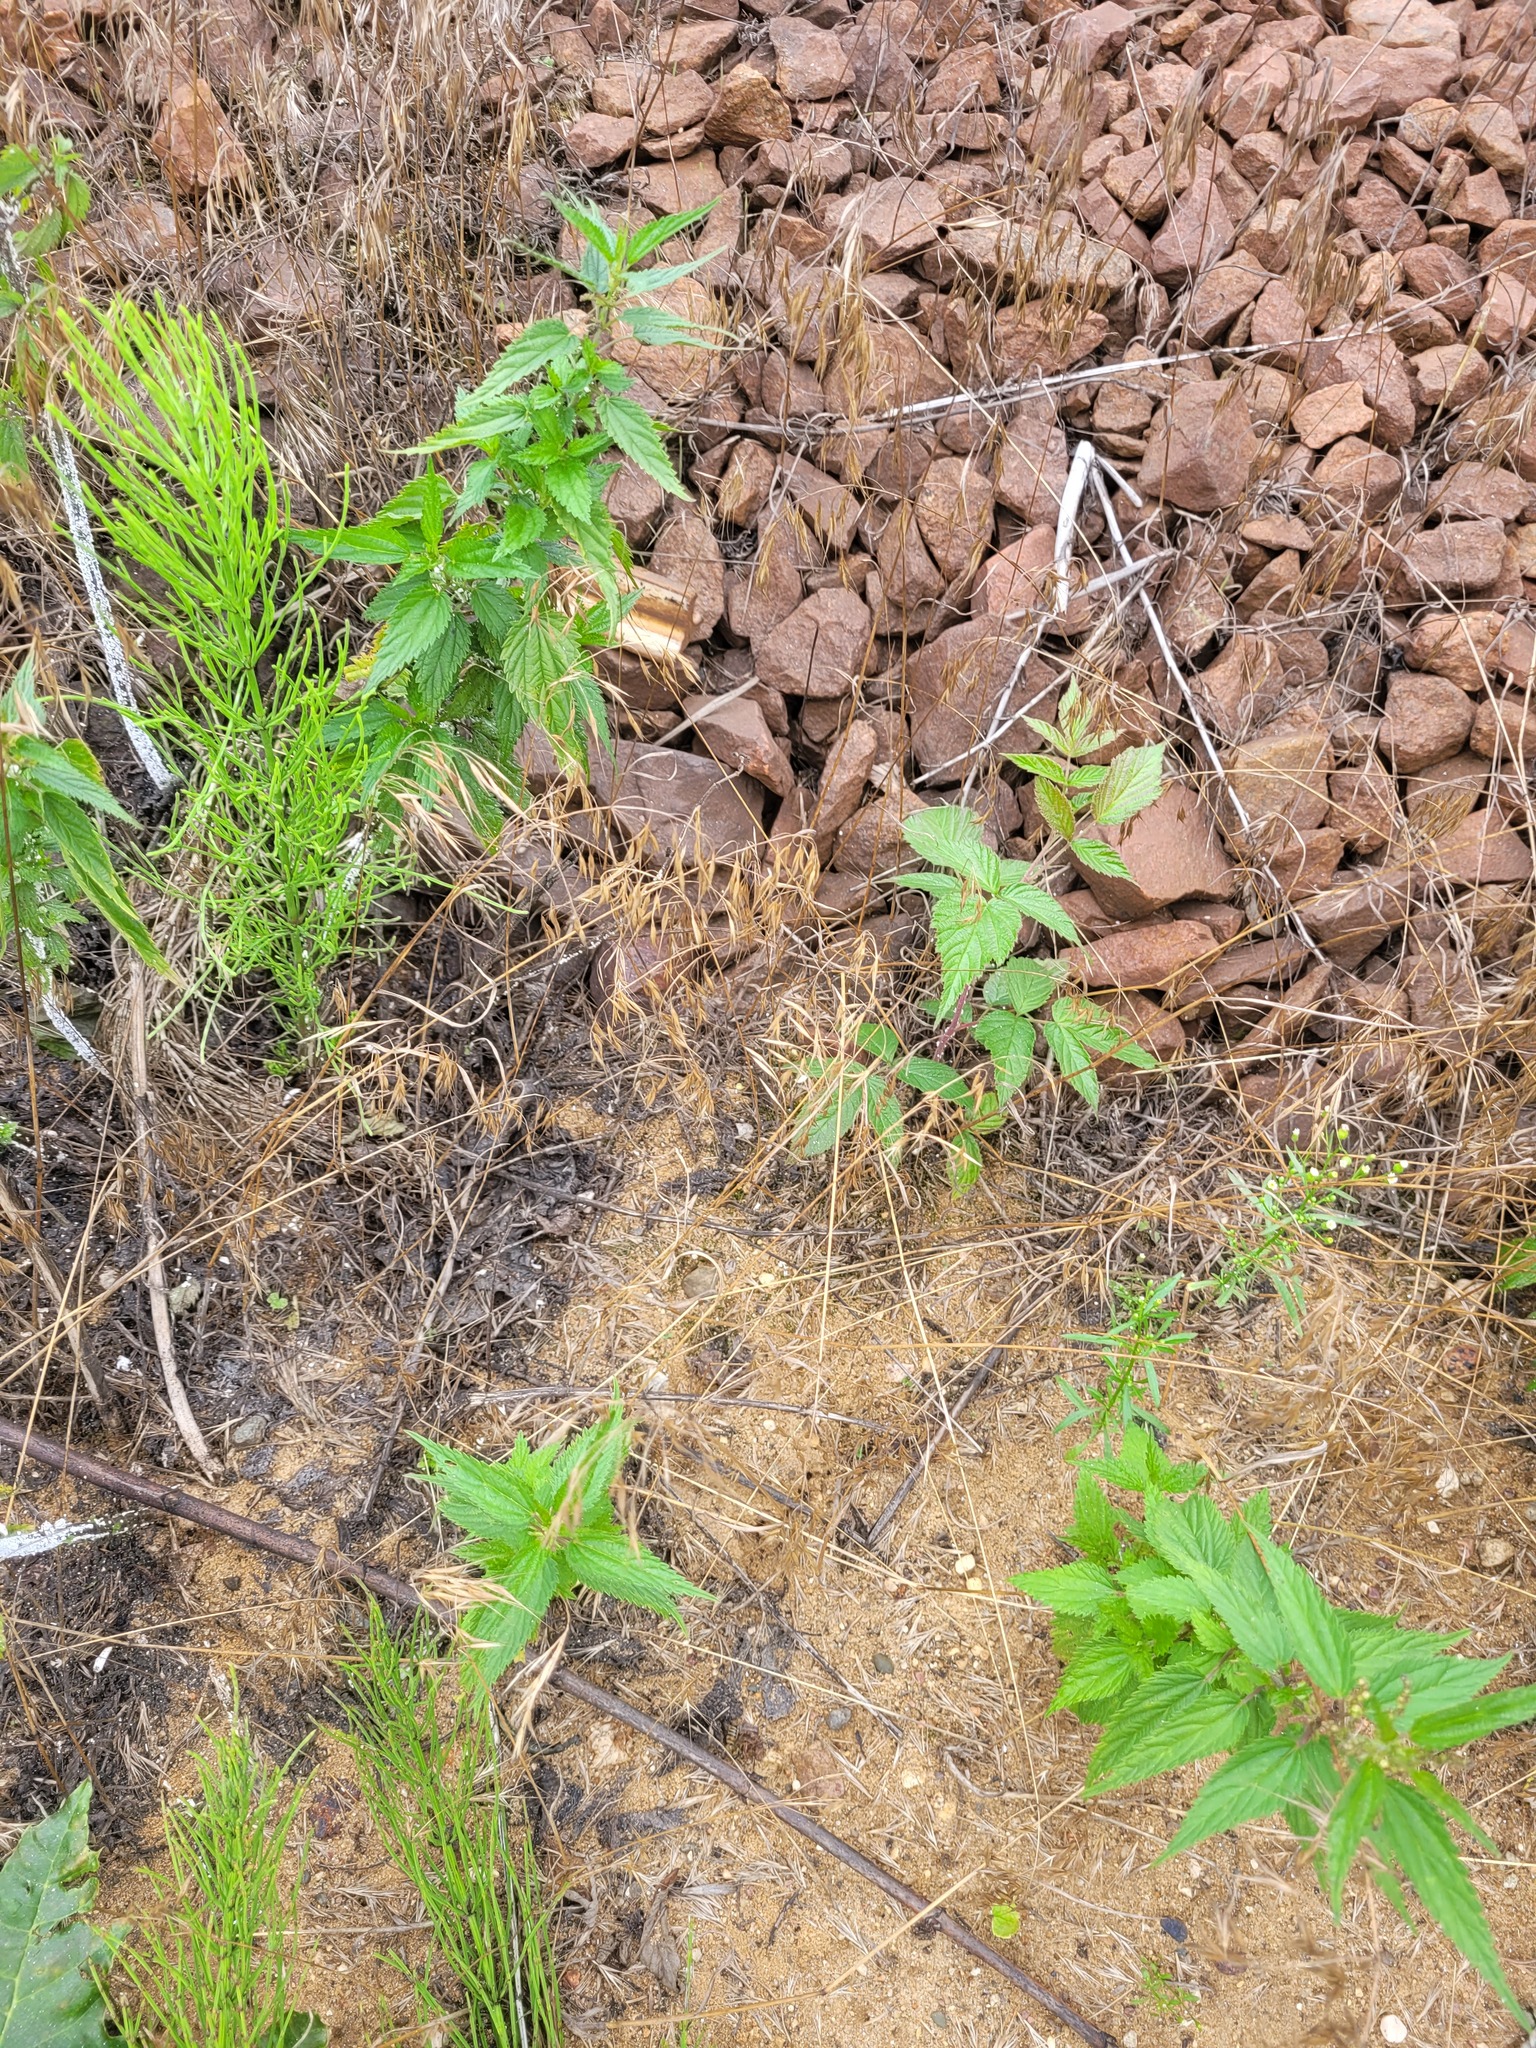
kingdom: Plantae
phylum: Tracheophyta
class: Liliopsida
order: Poales
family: Poaceae
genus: Bromus
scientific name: Bromus tectorum
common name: Cheatgrass
